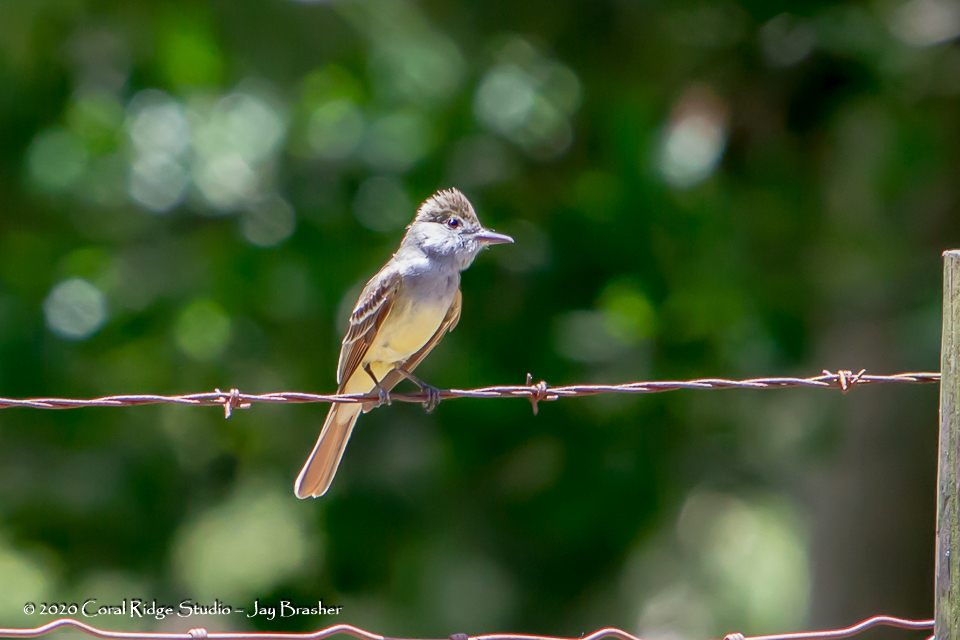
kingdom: Animalia
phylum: Chordata
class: Aves
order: Passeriformes
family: Tyrannidae
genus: Myiarchus
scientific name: Myiarchus crinitus
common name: Great crested flycatcher
